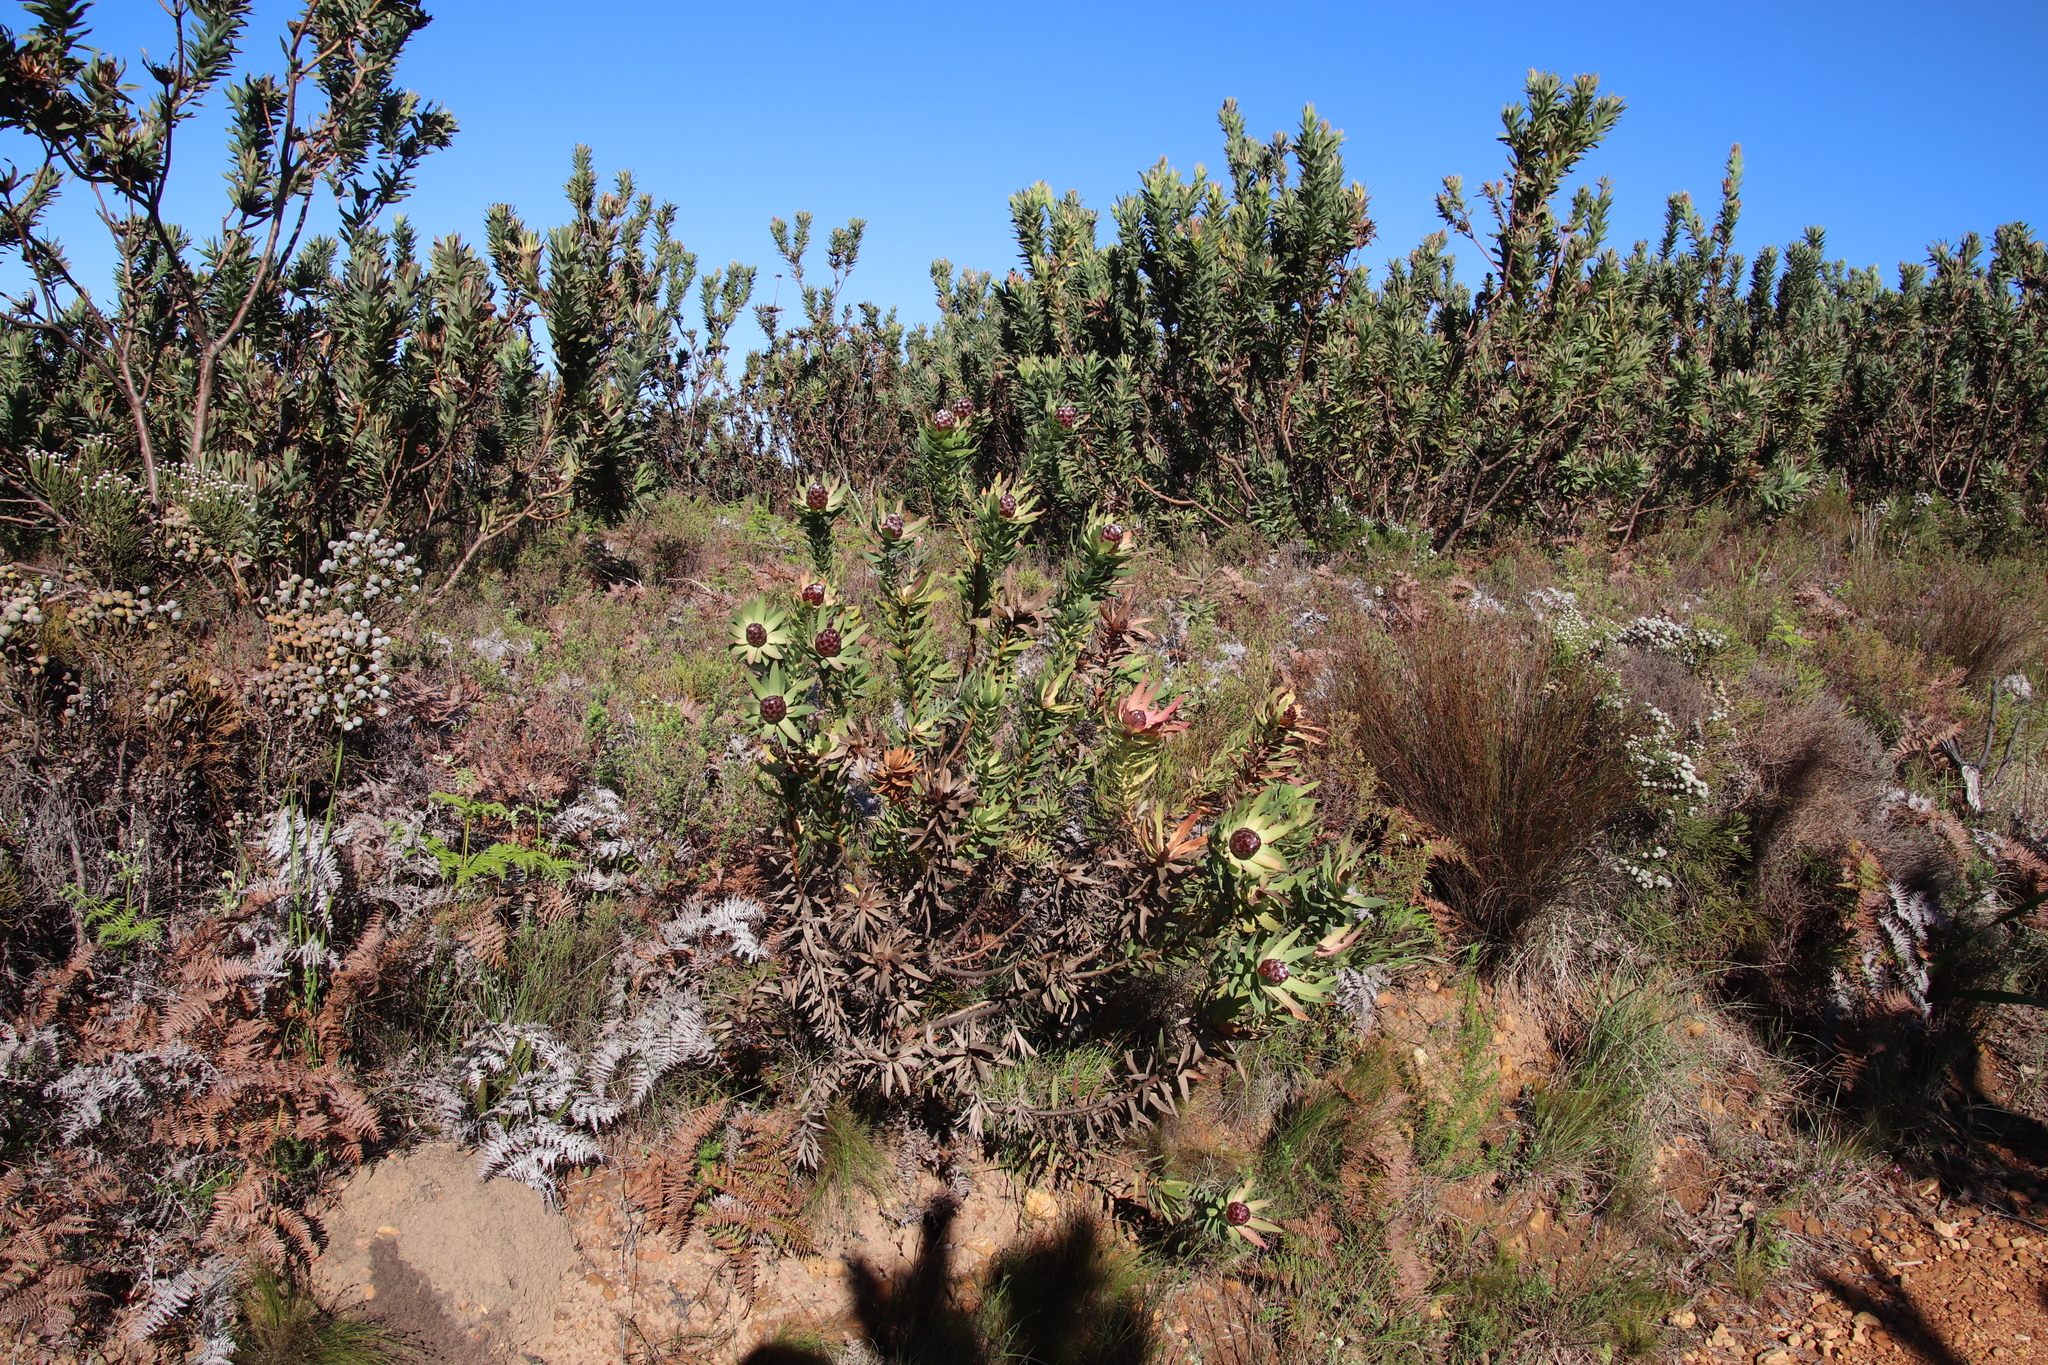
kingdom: Plantae
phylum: Tracheophyta
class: Magnoliopsida
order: Proteales
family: Proteaceae
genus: Leucadendron
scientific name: Leucadendron sessile
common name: Western sunbush
